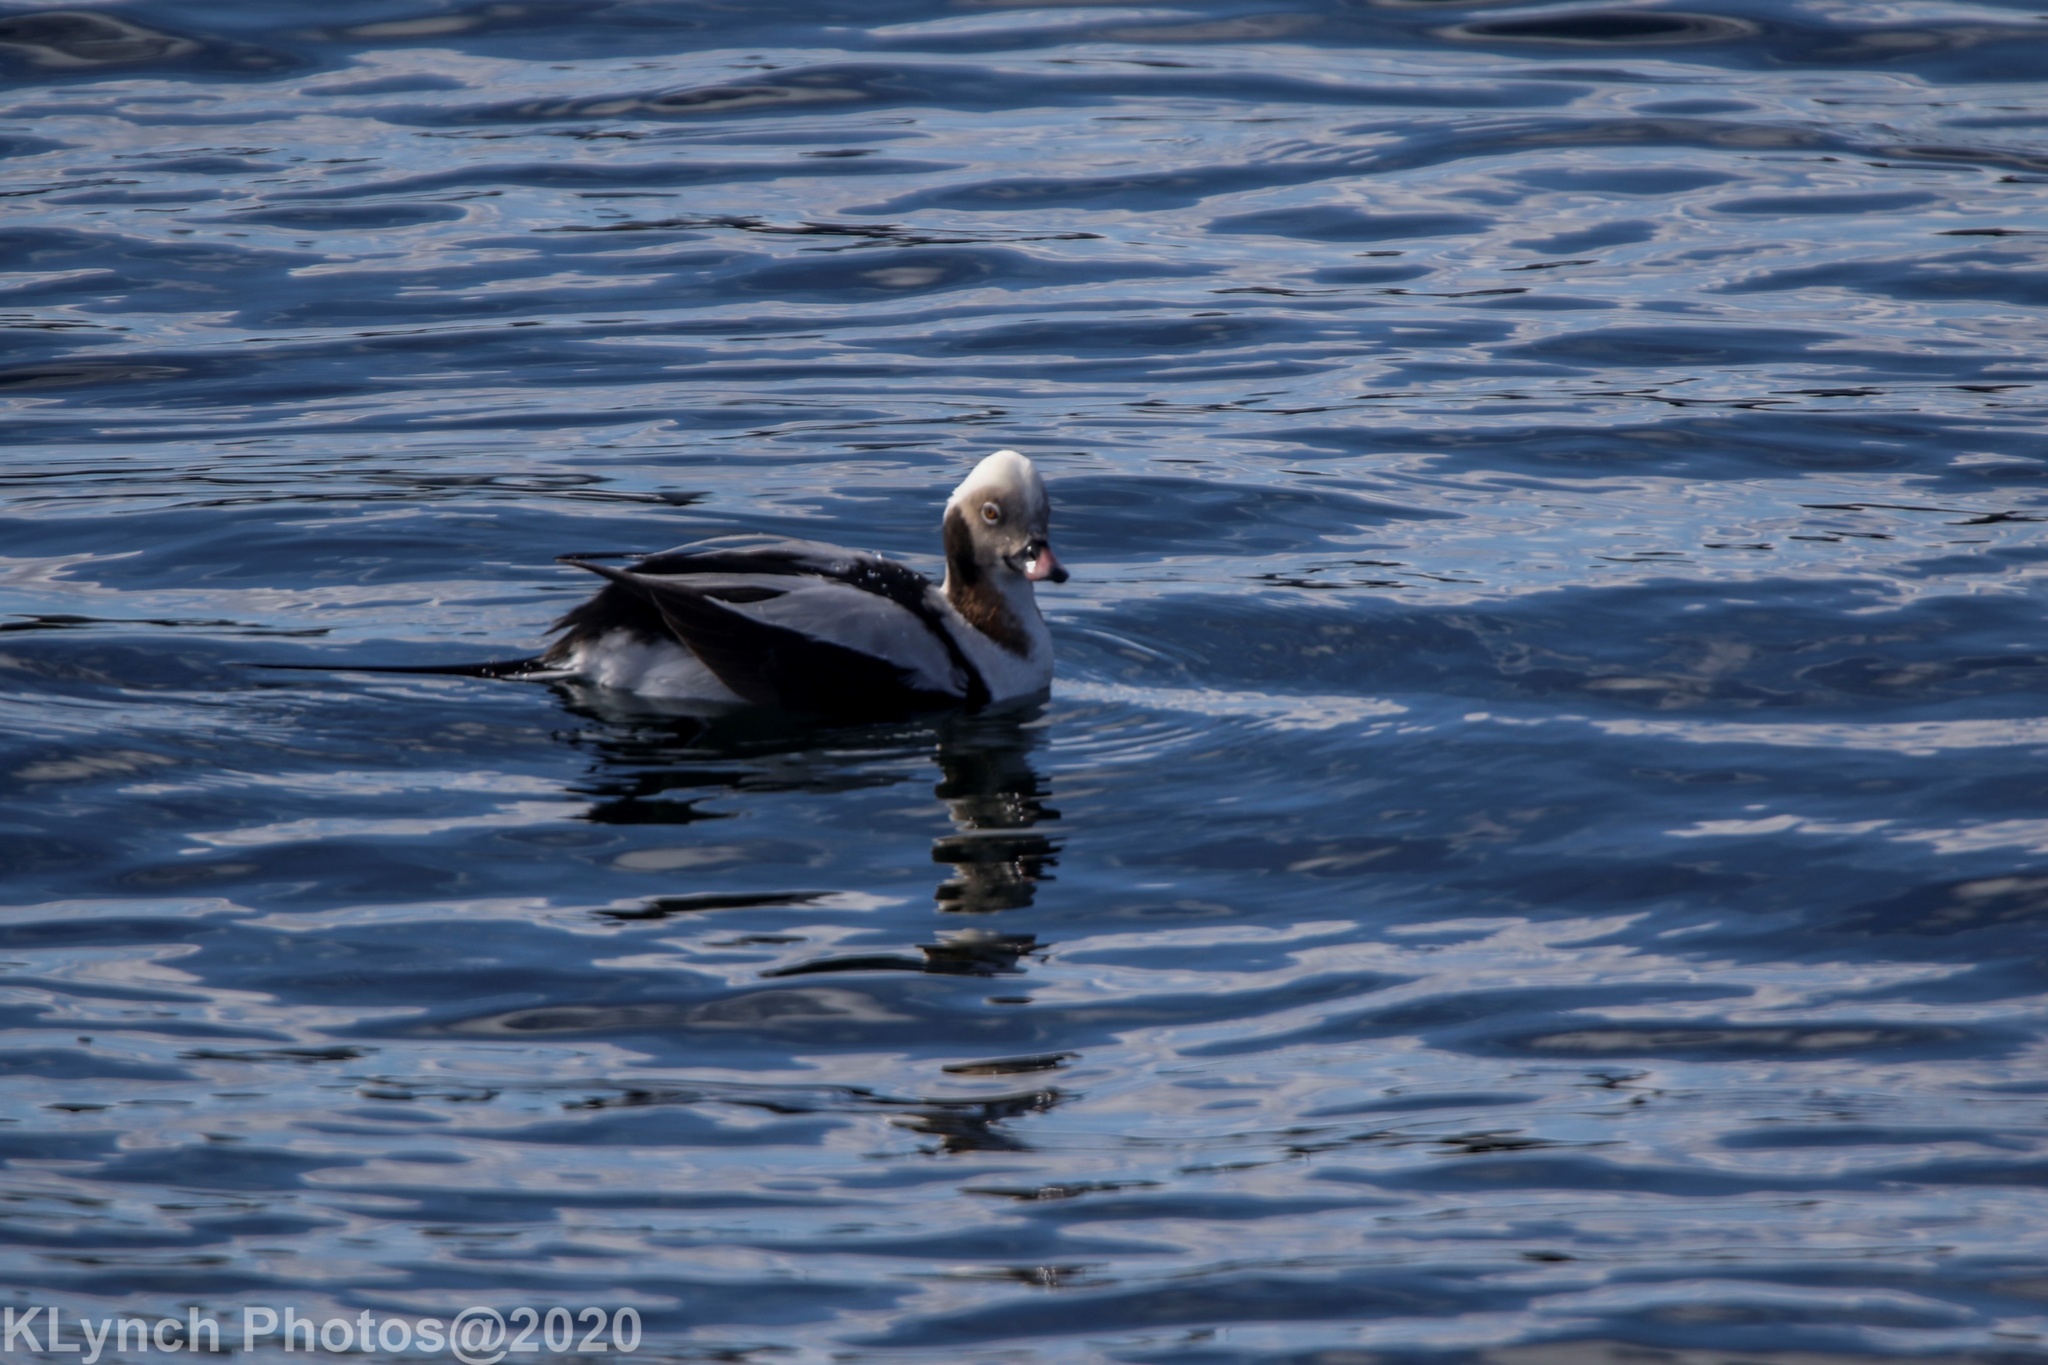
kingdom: Animalia
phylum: Chordata
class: Aves
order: Anseriformes
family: Anatidae
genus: Clangula
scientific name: Clangula hyemalis
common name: Long-tailed duck
